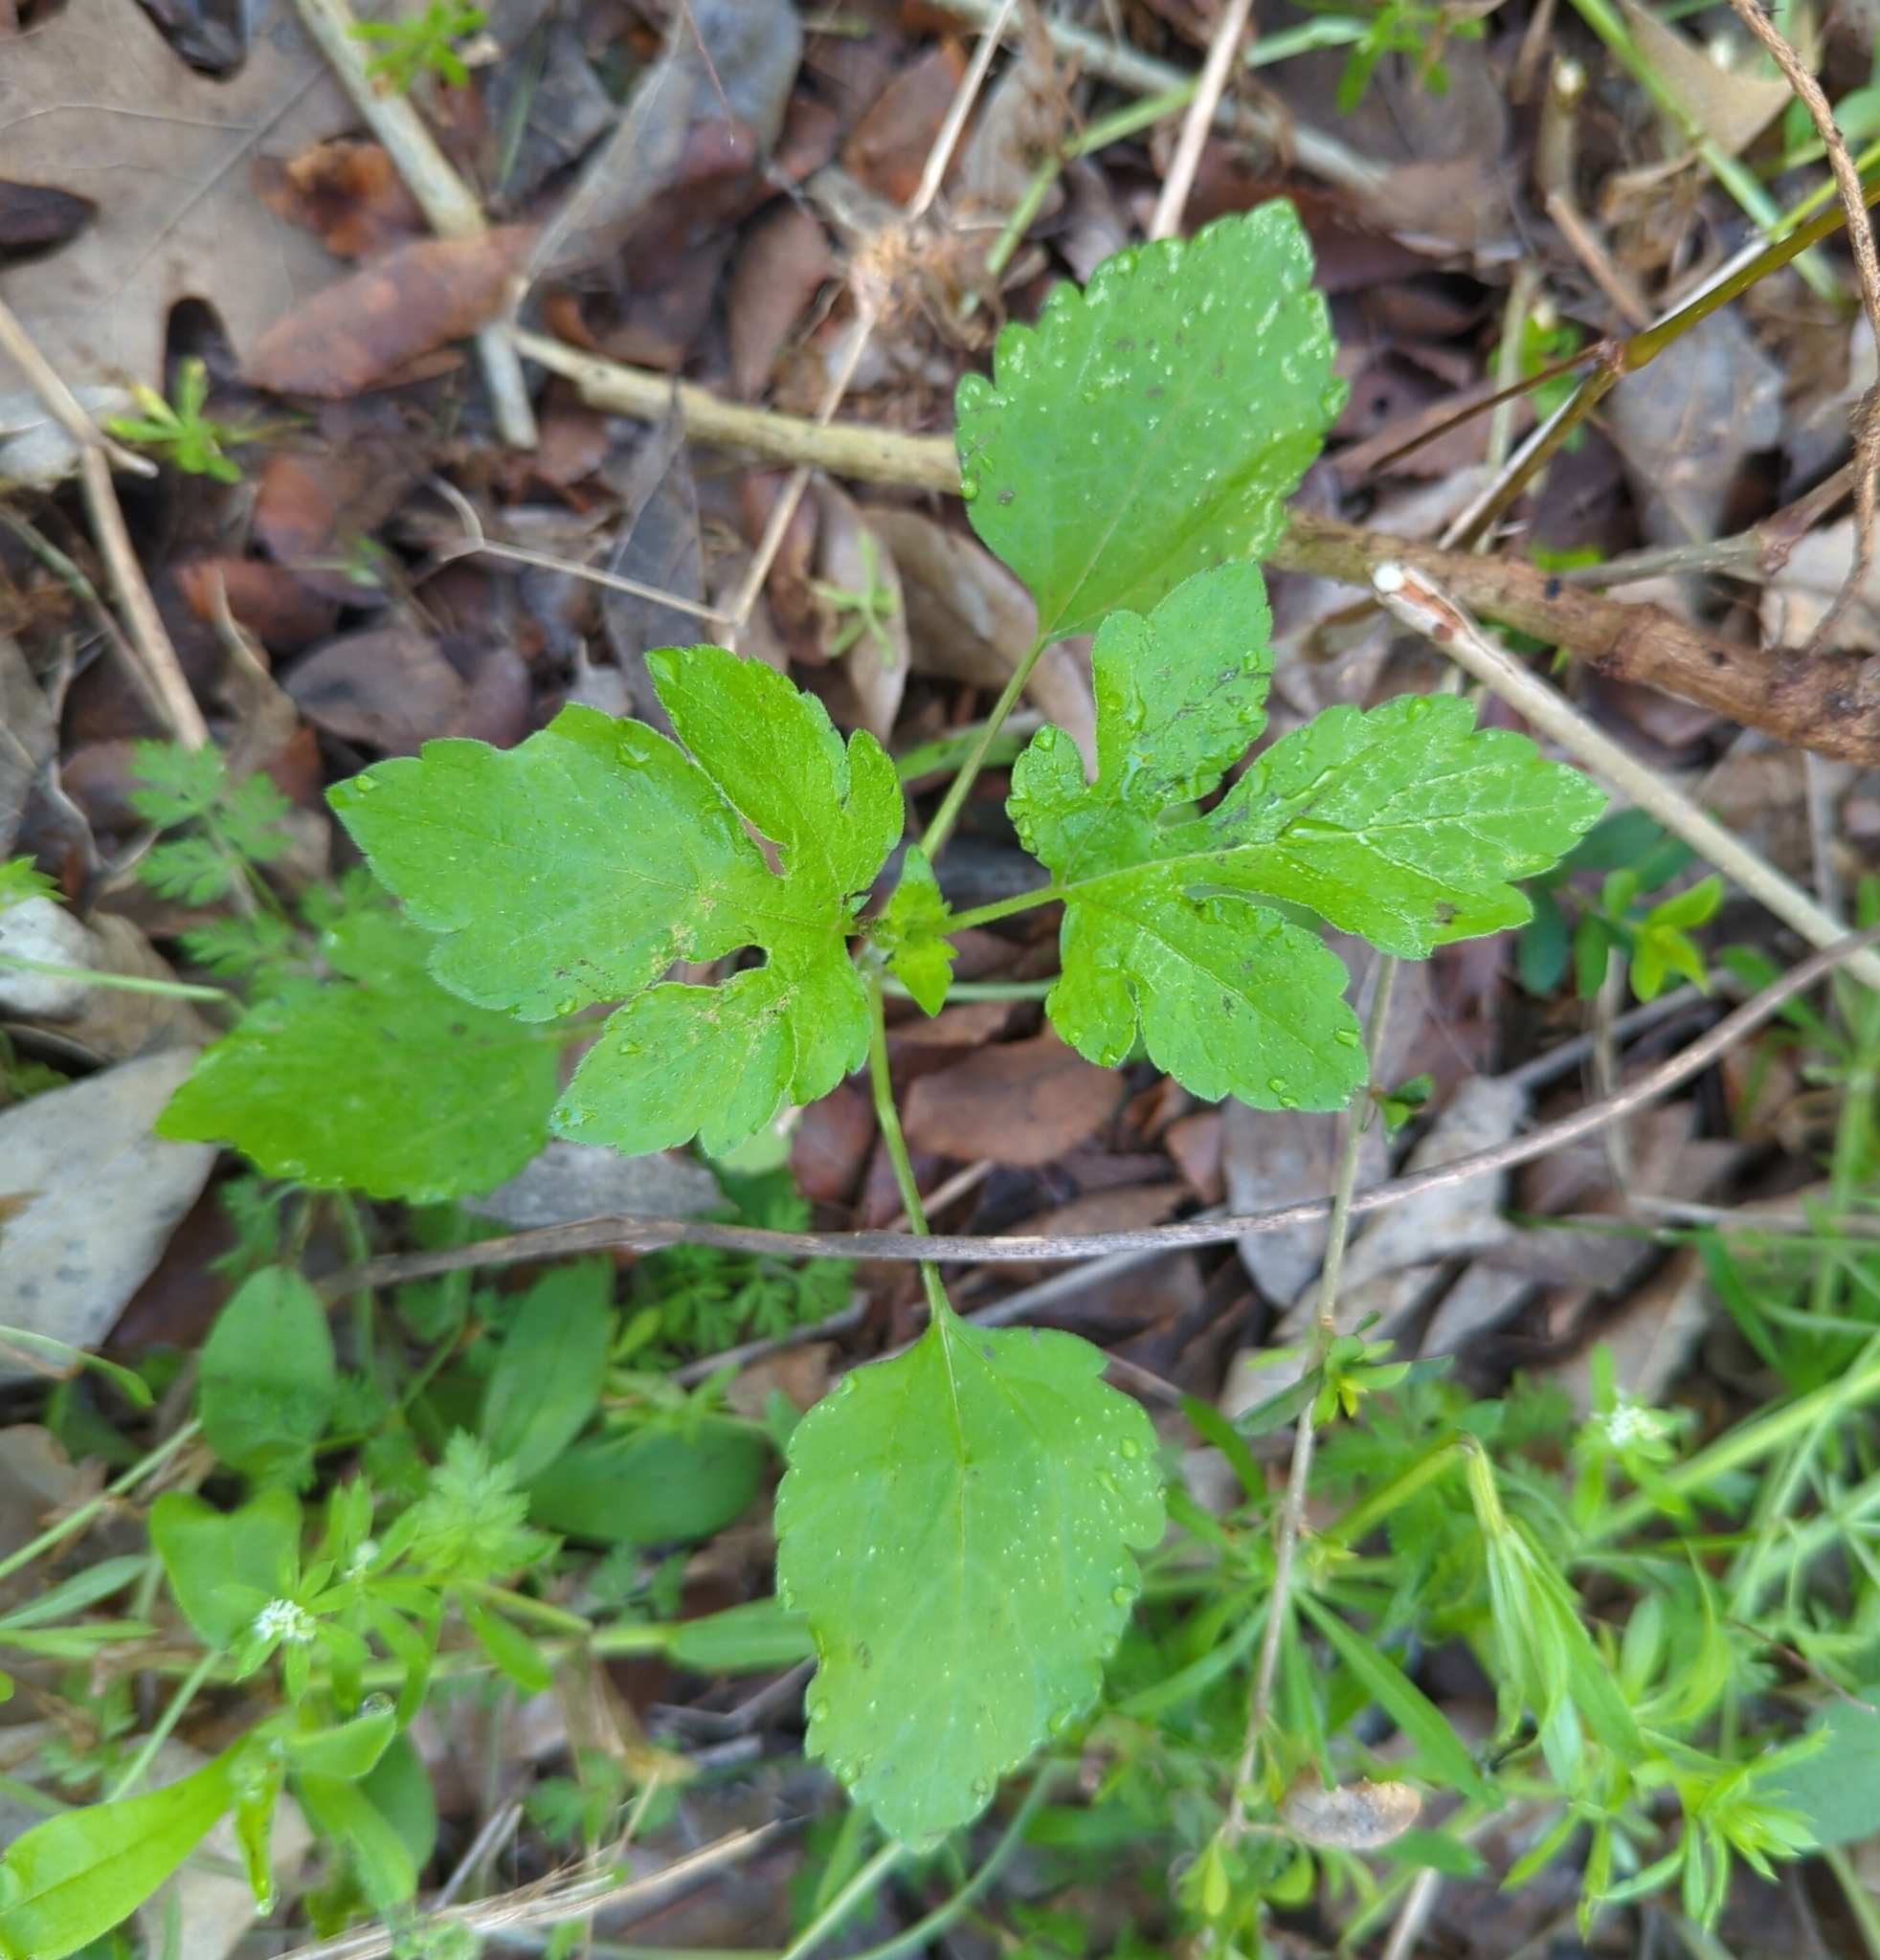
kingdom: Plantae
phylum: Tracheophyta
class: Magnoliopsida
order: Asterales
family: Asteraceae
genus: Ambrosia
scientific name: Ambrosia trifida
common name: Giant ragweed
